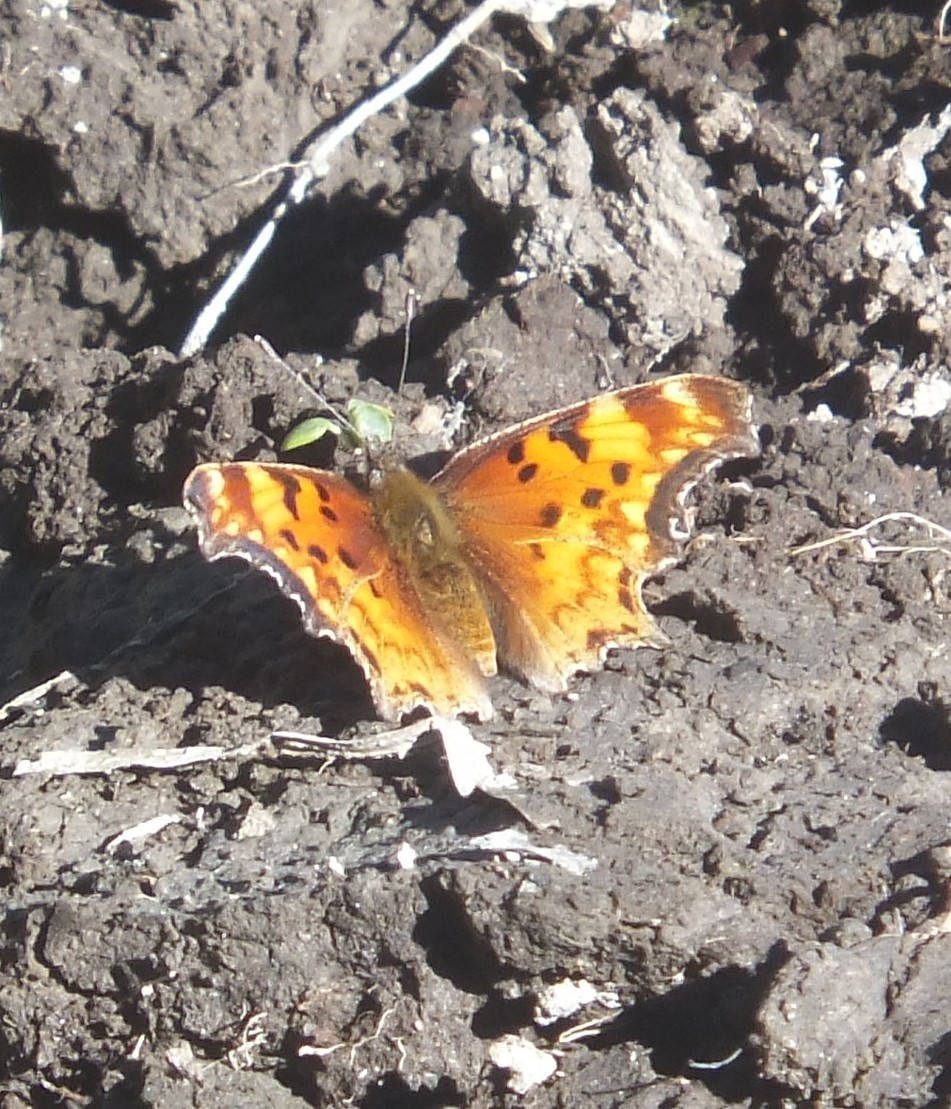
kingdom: Animalia
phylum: Arthropoda
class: Insecta
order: Lepidoptera
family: Nymphalidae
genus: Polygonia
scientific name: Polygonia gracilis
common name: Hoary comma
